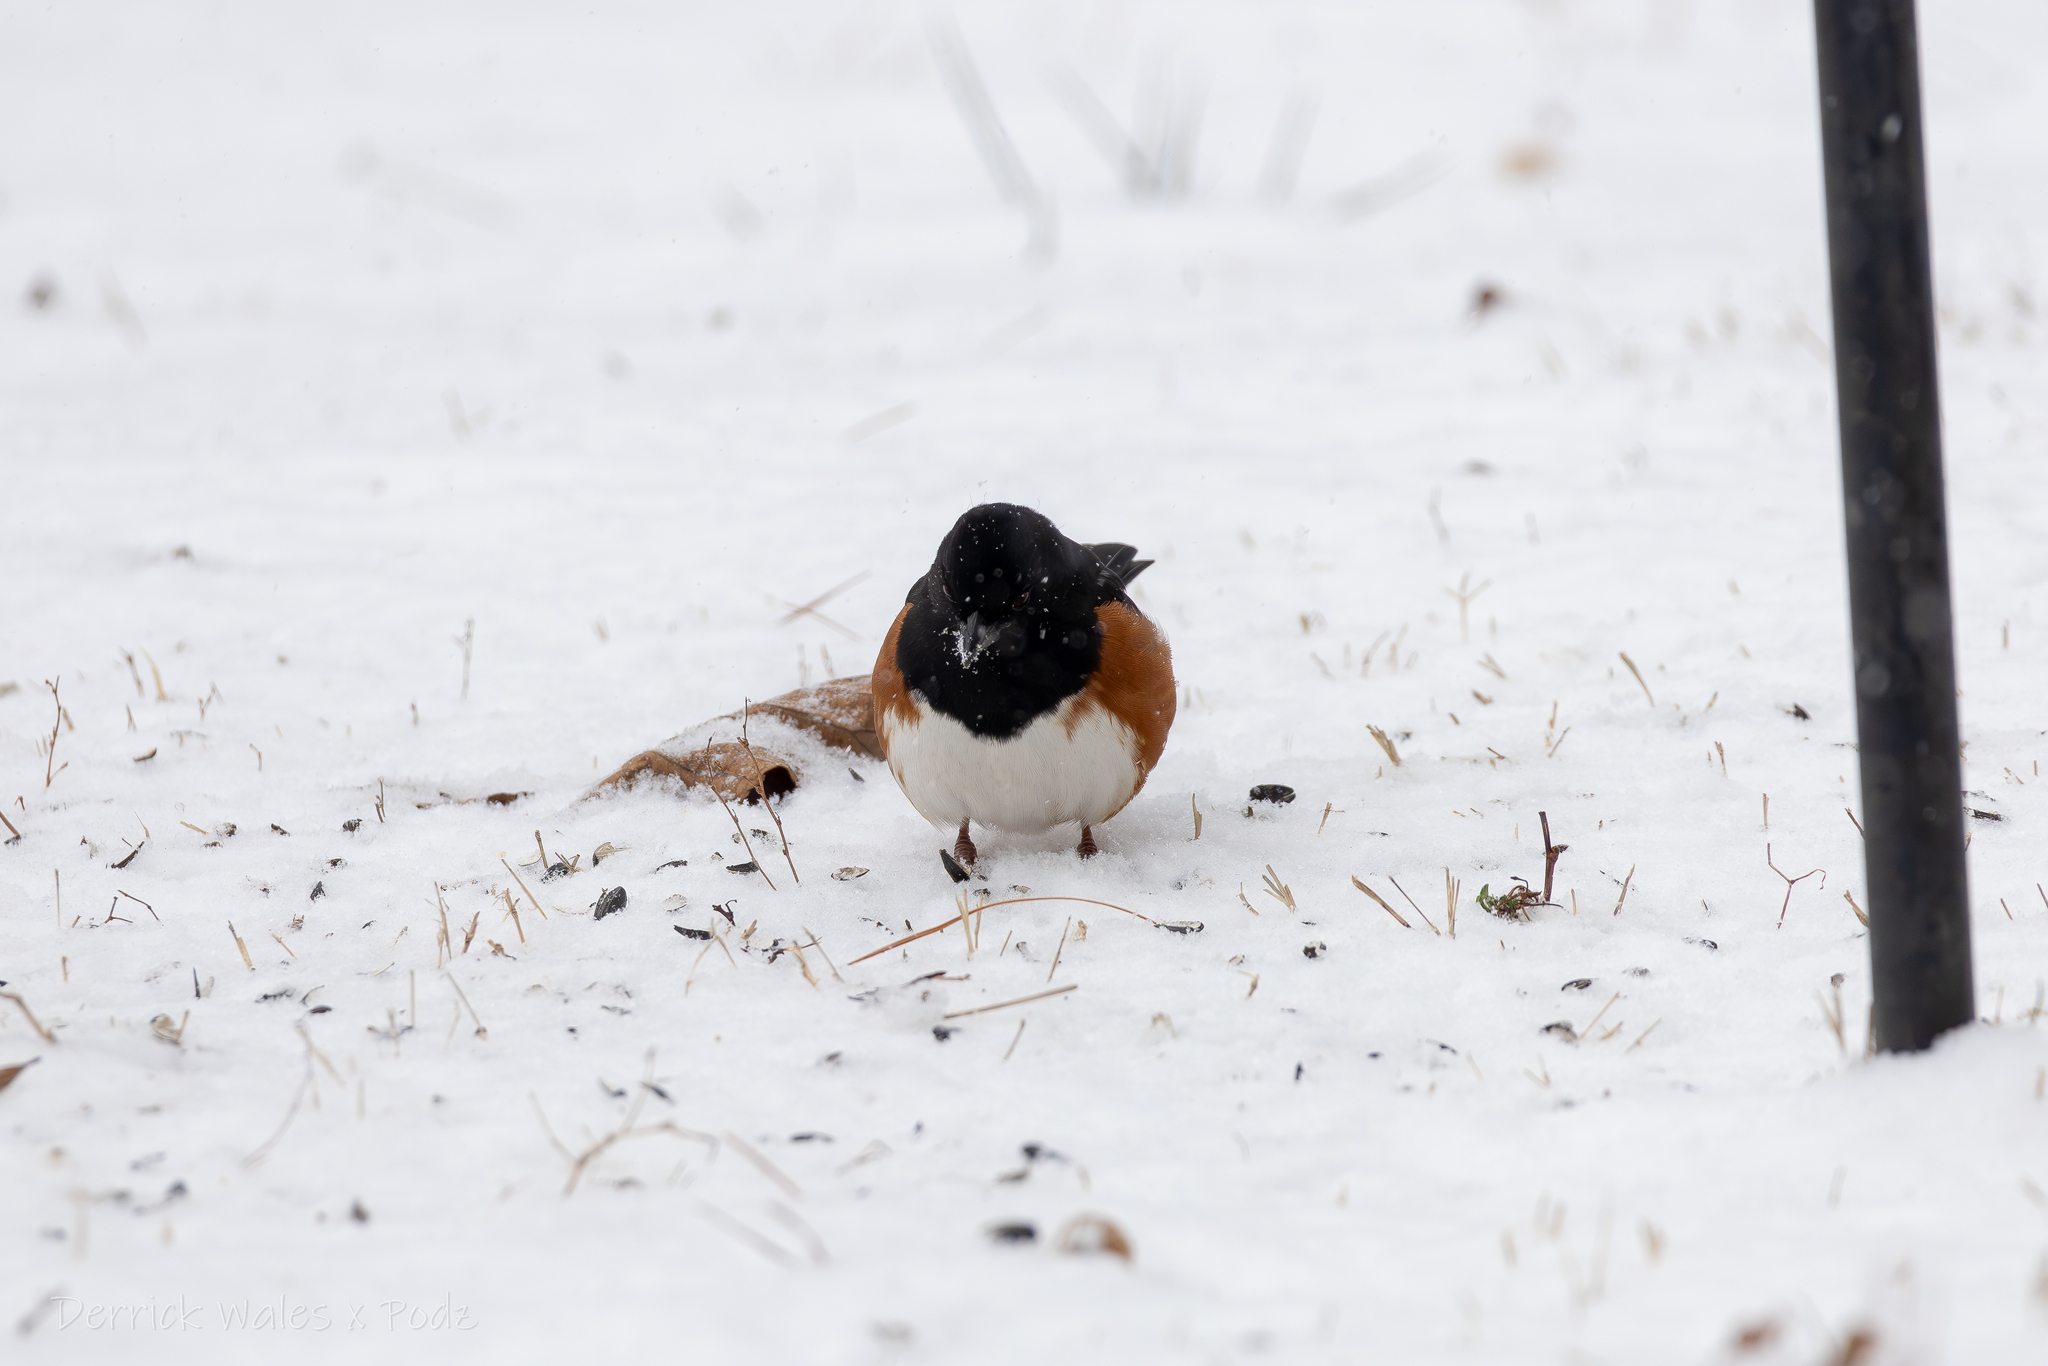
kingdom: Animalia
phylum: Chordata
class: Aves
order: Passeriformes
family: Passerellidae
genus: Pipilo
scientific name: Pipilo erythrophthalmus
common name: Eastern towhee
